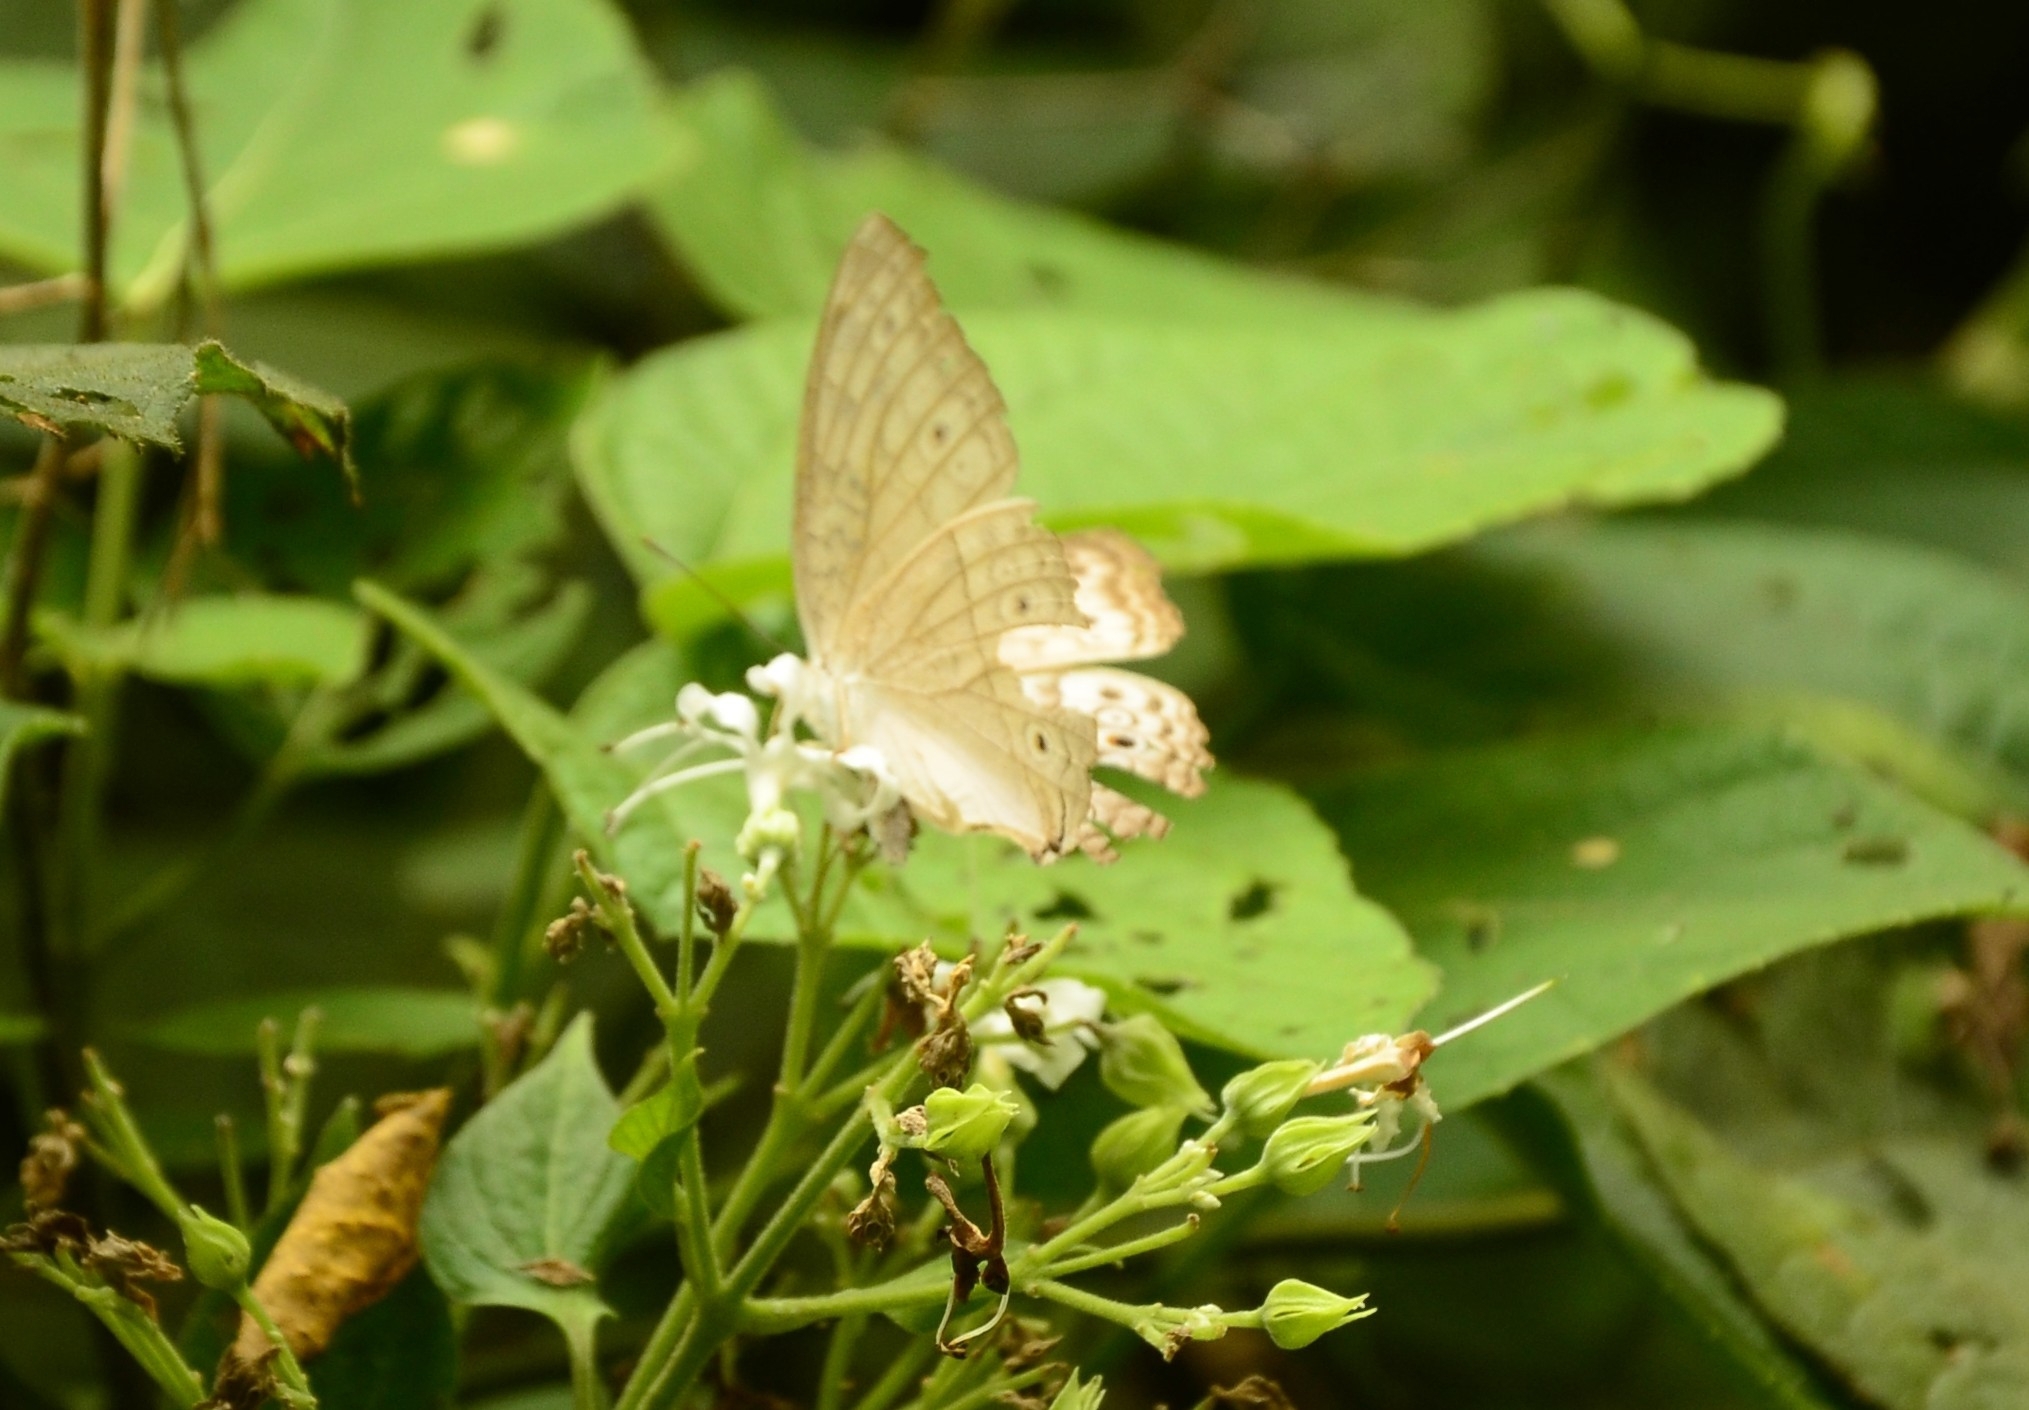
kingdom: Animalia
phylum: Arthropoda
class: Insecta
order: Lepidoptera
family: Nymphalidae
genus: Junonia
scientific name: Junonia atlites
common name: Grey pansy
